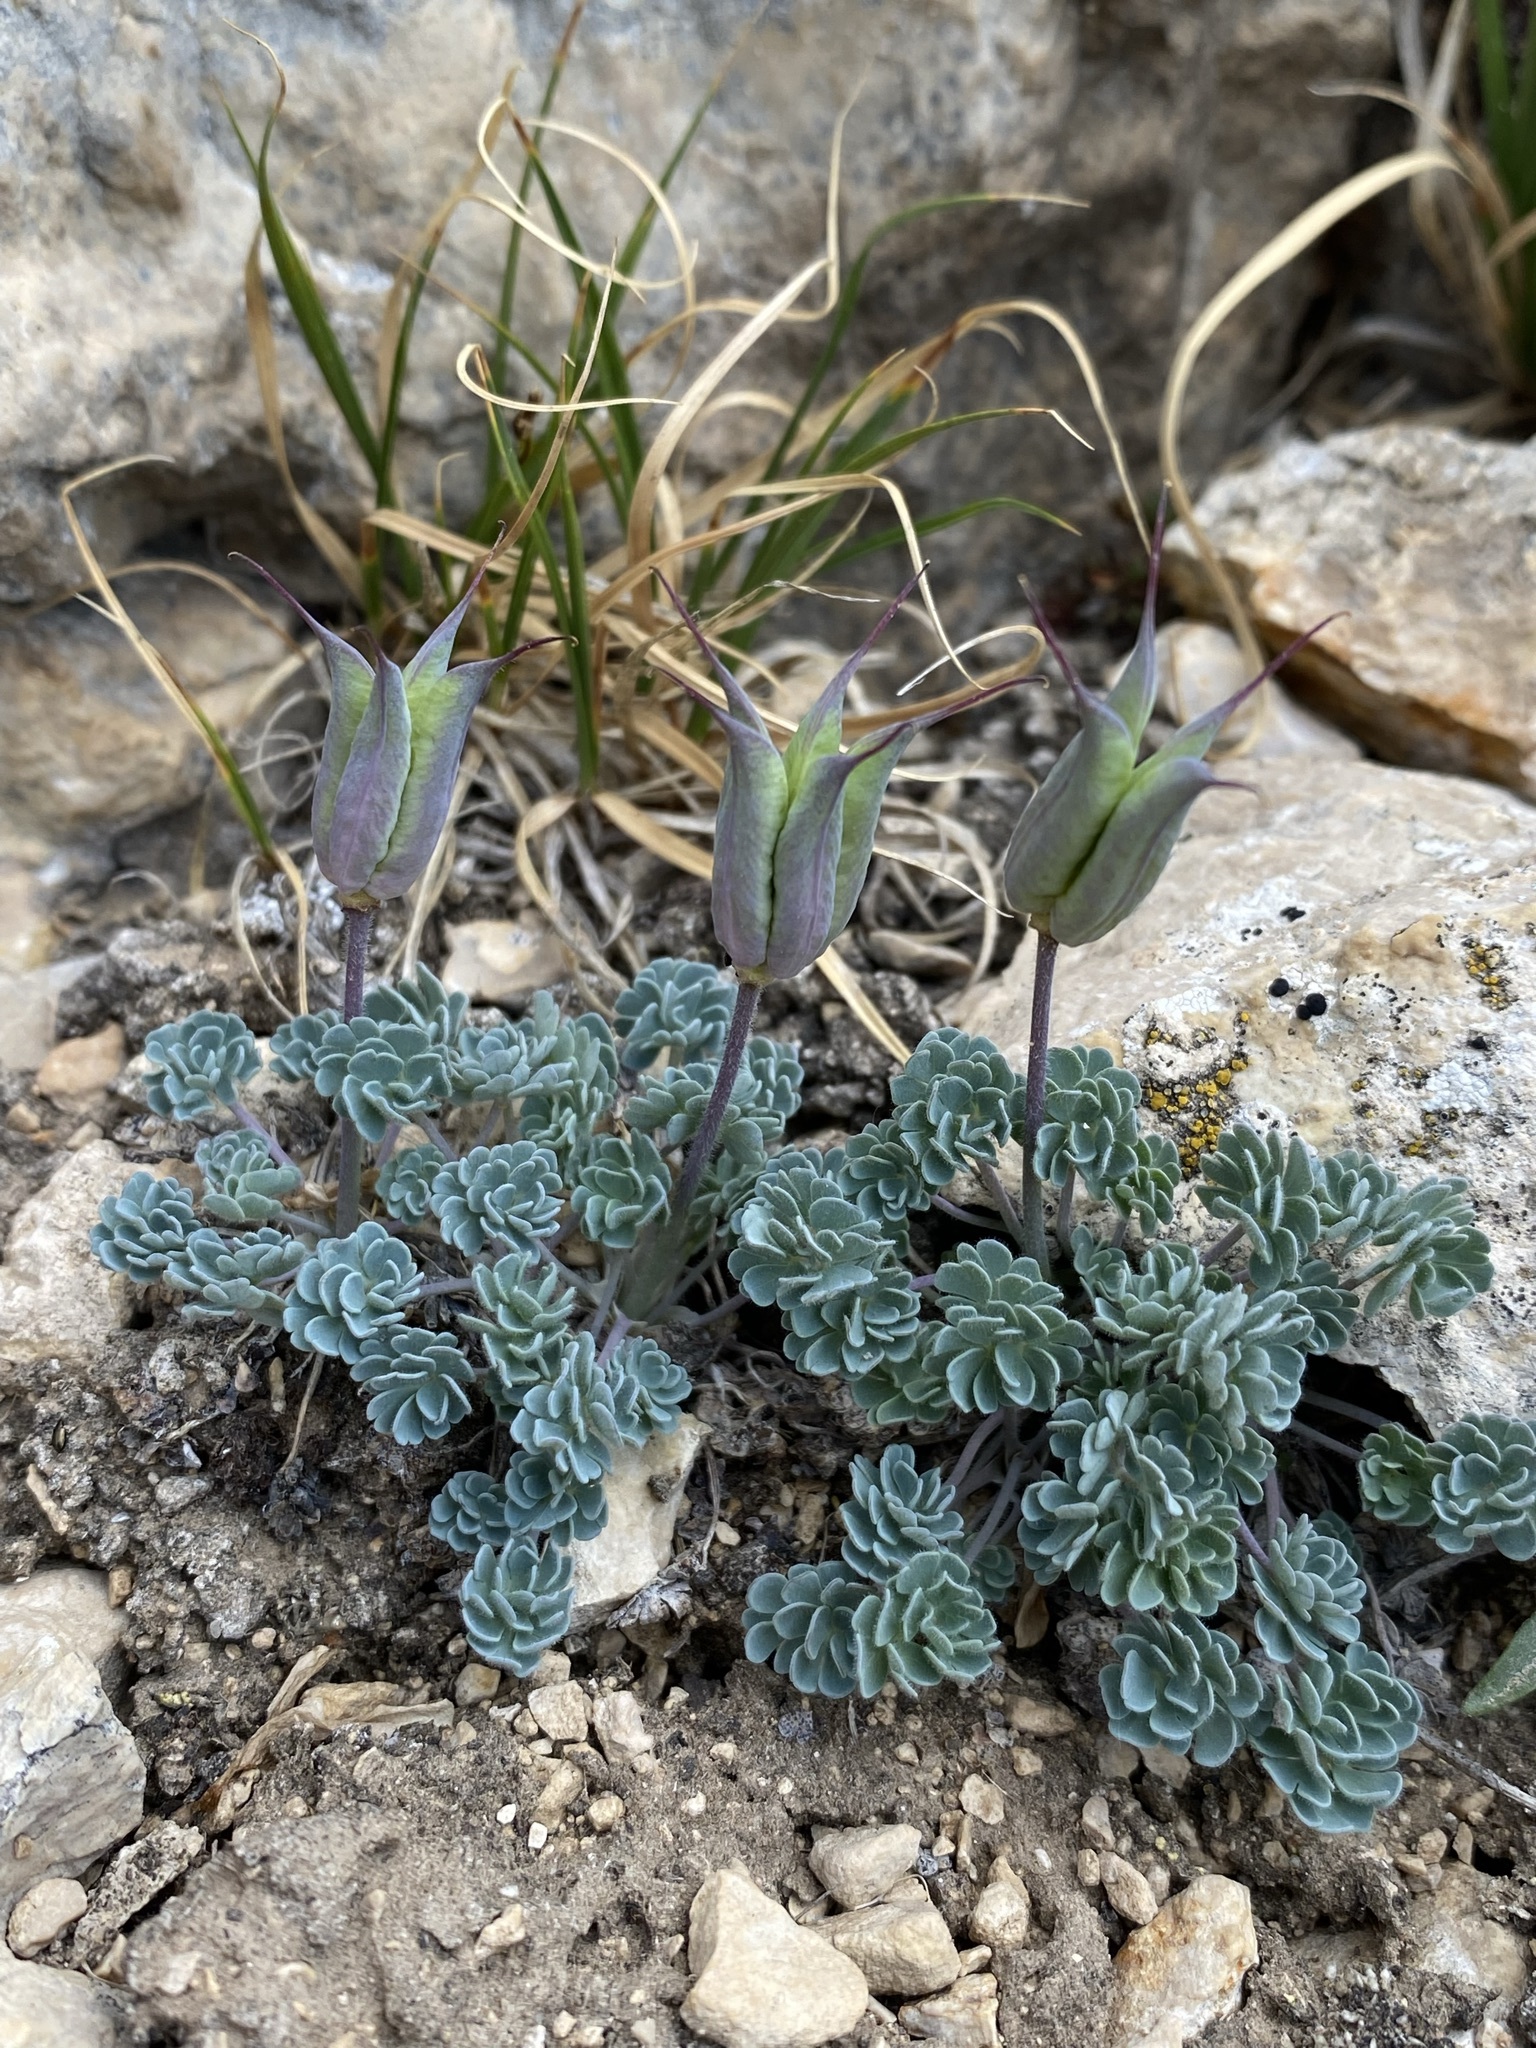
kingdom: Plantae
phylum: Tracheophyta
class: Magnoliopsida
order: Ranunculales
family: Ranunculaceae
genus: Aquilegia
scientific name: Aquilegia jonesii
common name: Jones' columbine
